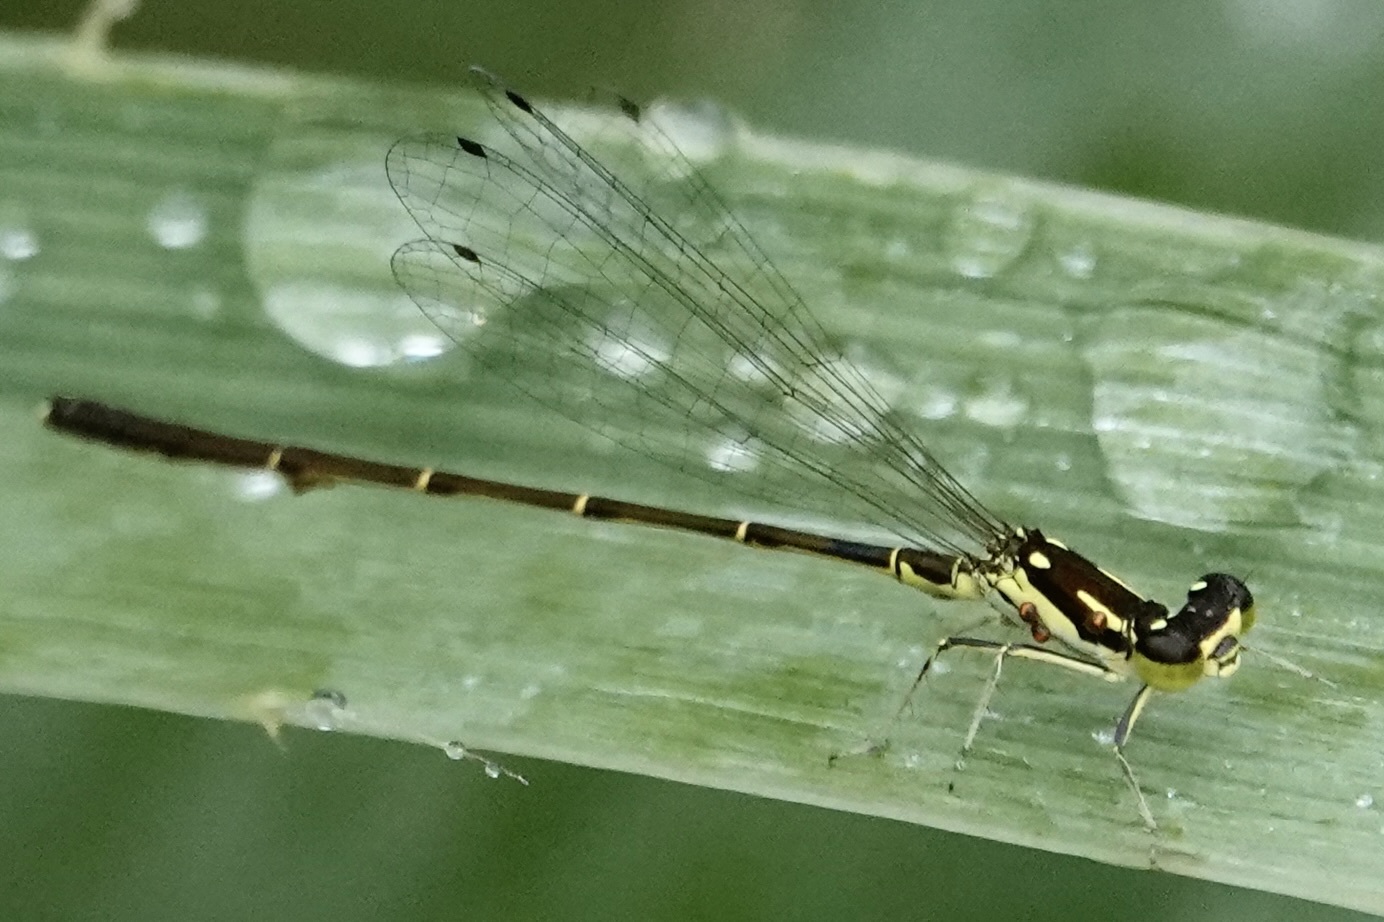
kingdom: Animalia
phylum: Arthropoda
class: Insecta
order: Odonata
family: Coenagrionidae
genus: Ischnura
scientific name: Ischnura posita
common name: Fragile forktail
